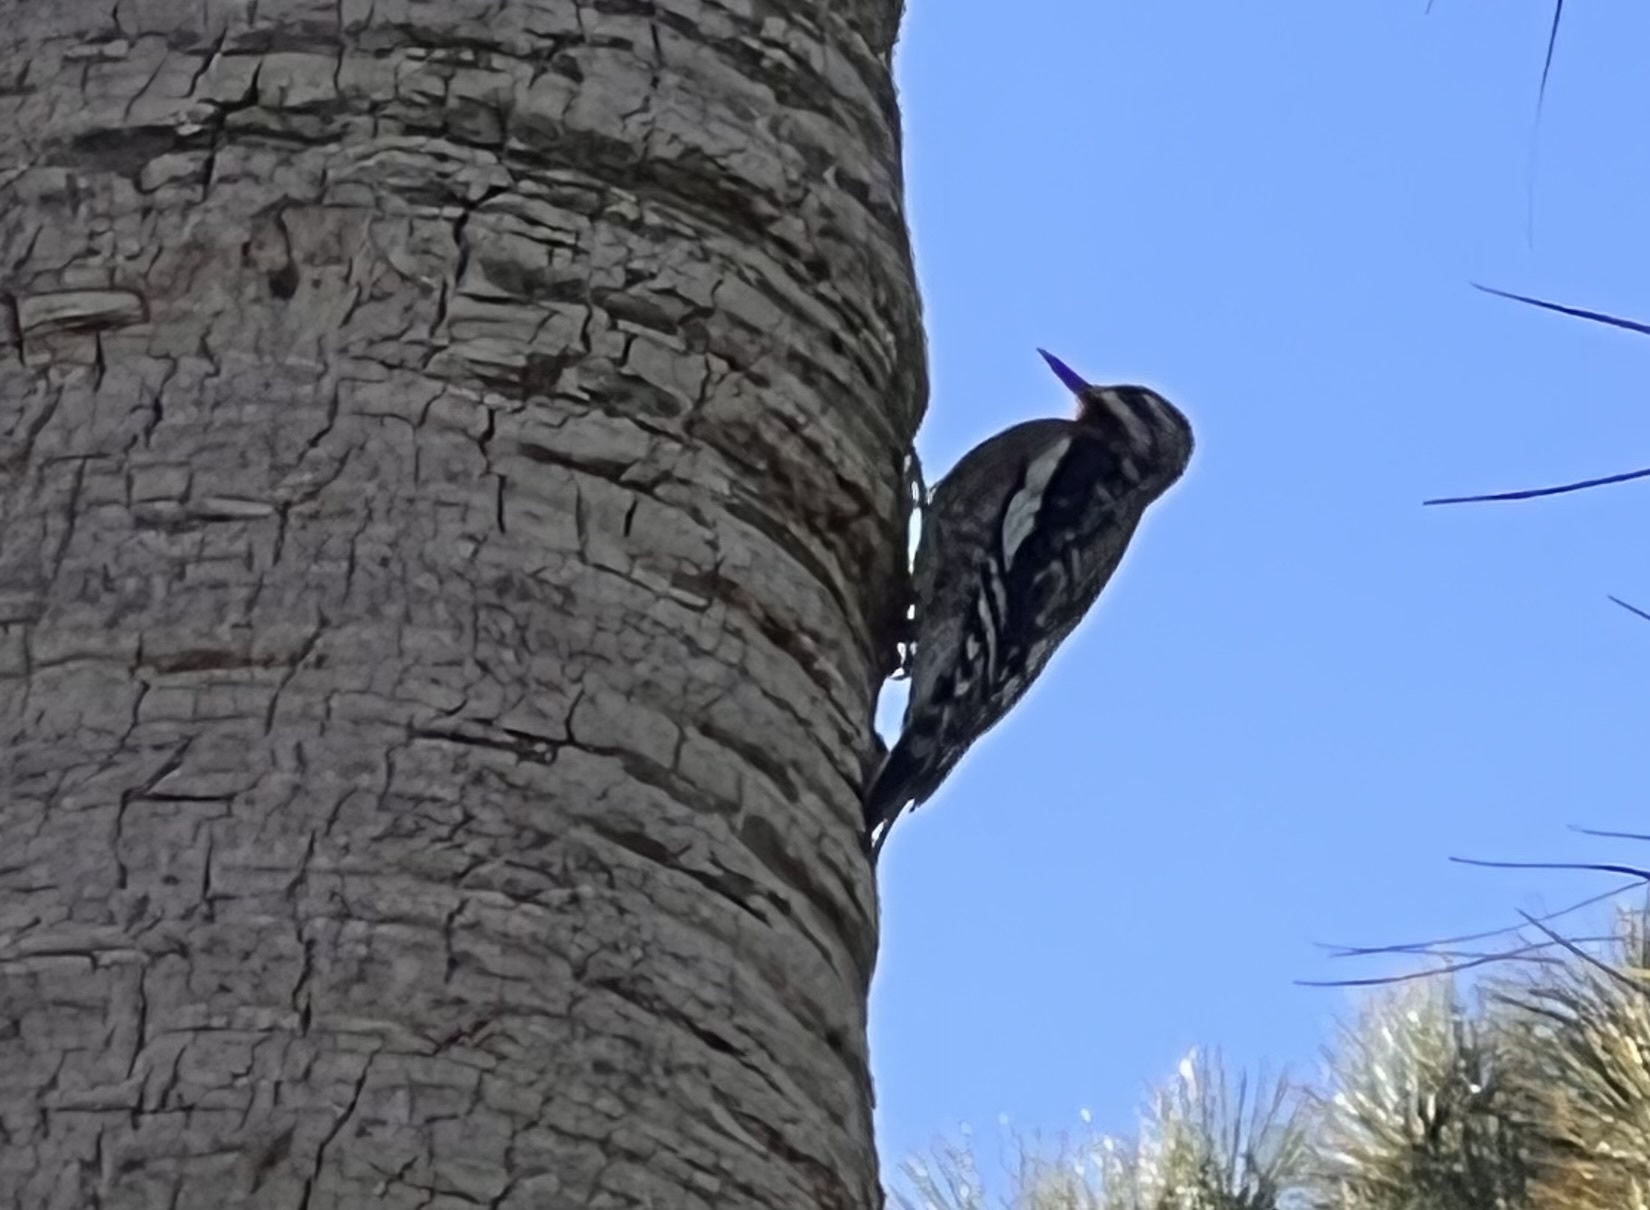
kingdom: Animalia
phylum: Chordata
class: Aves
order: Piciformes
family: Picidae
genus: Sphyrapicus
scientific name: Sphyrapicus varius
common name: Yellow-bellied sapsucker
